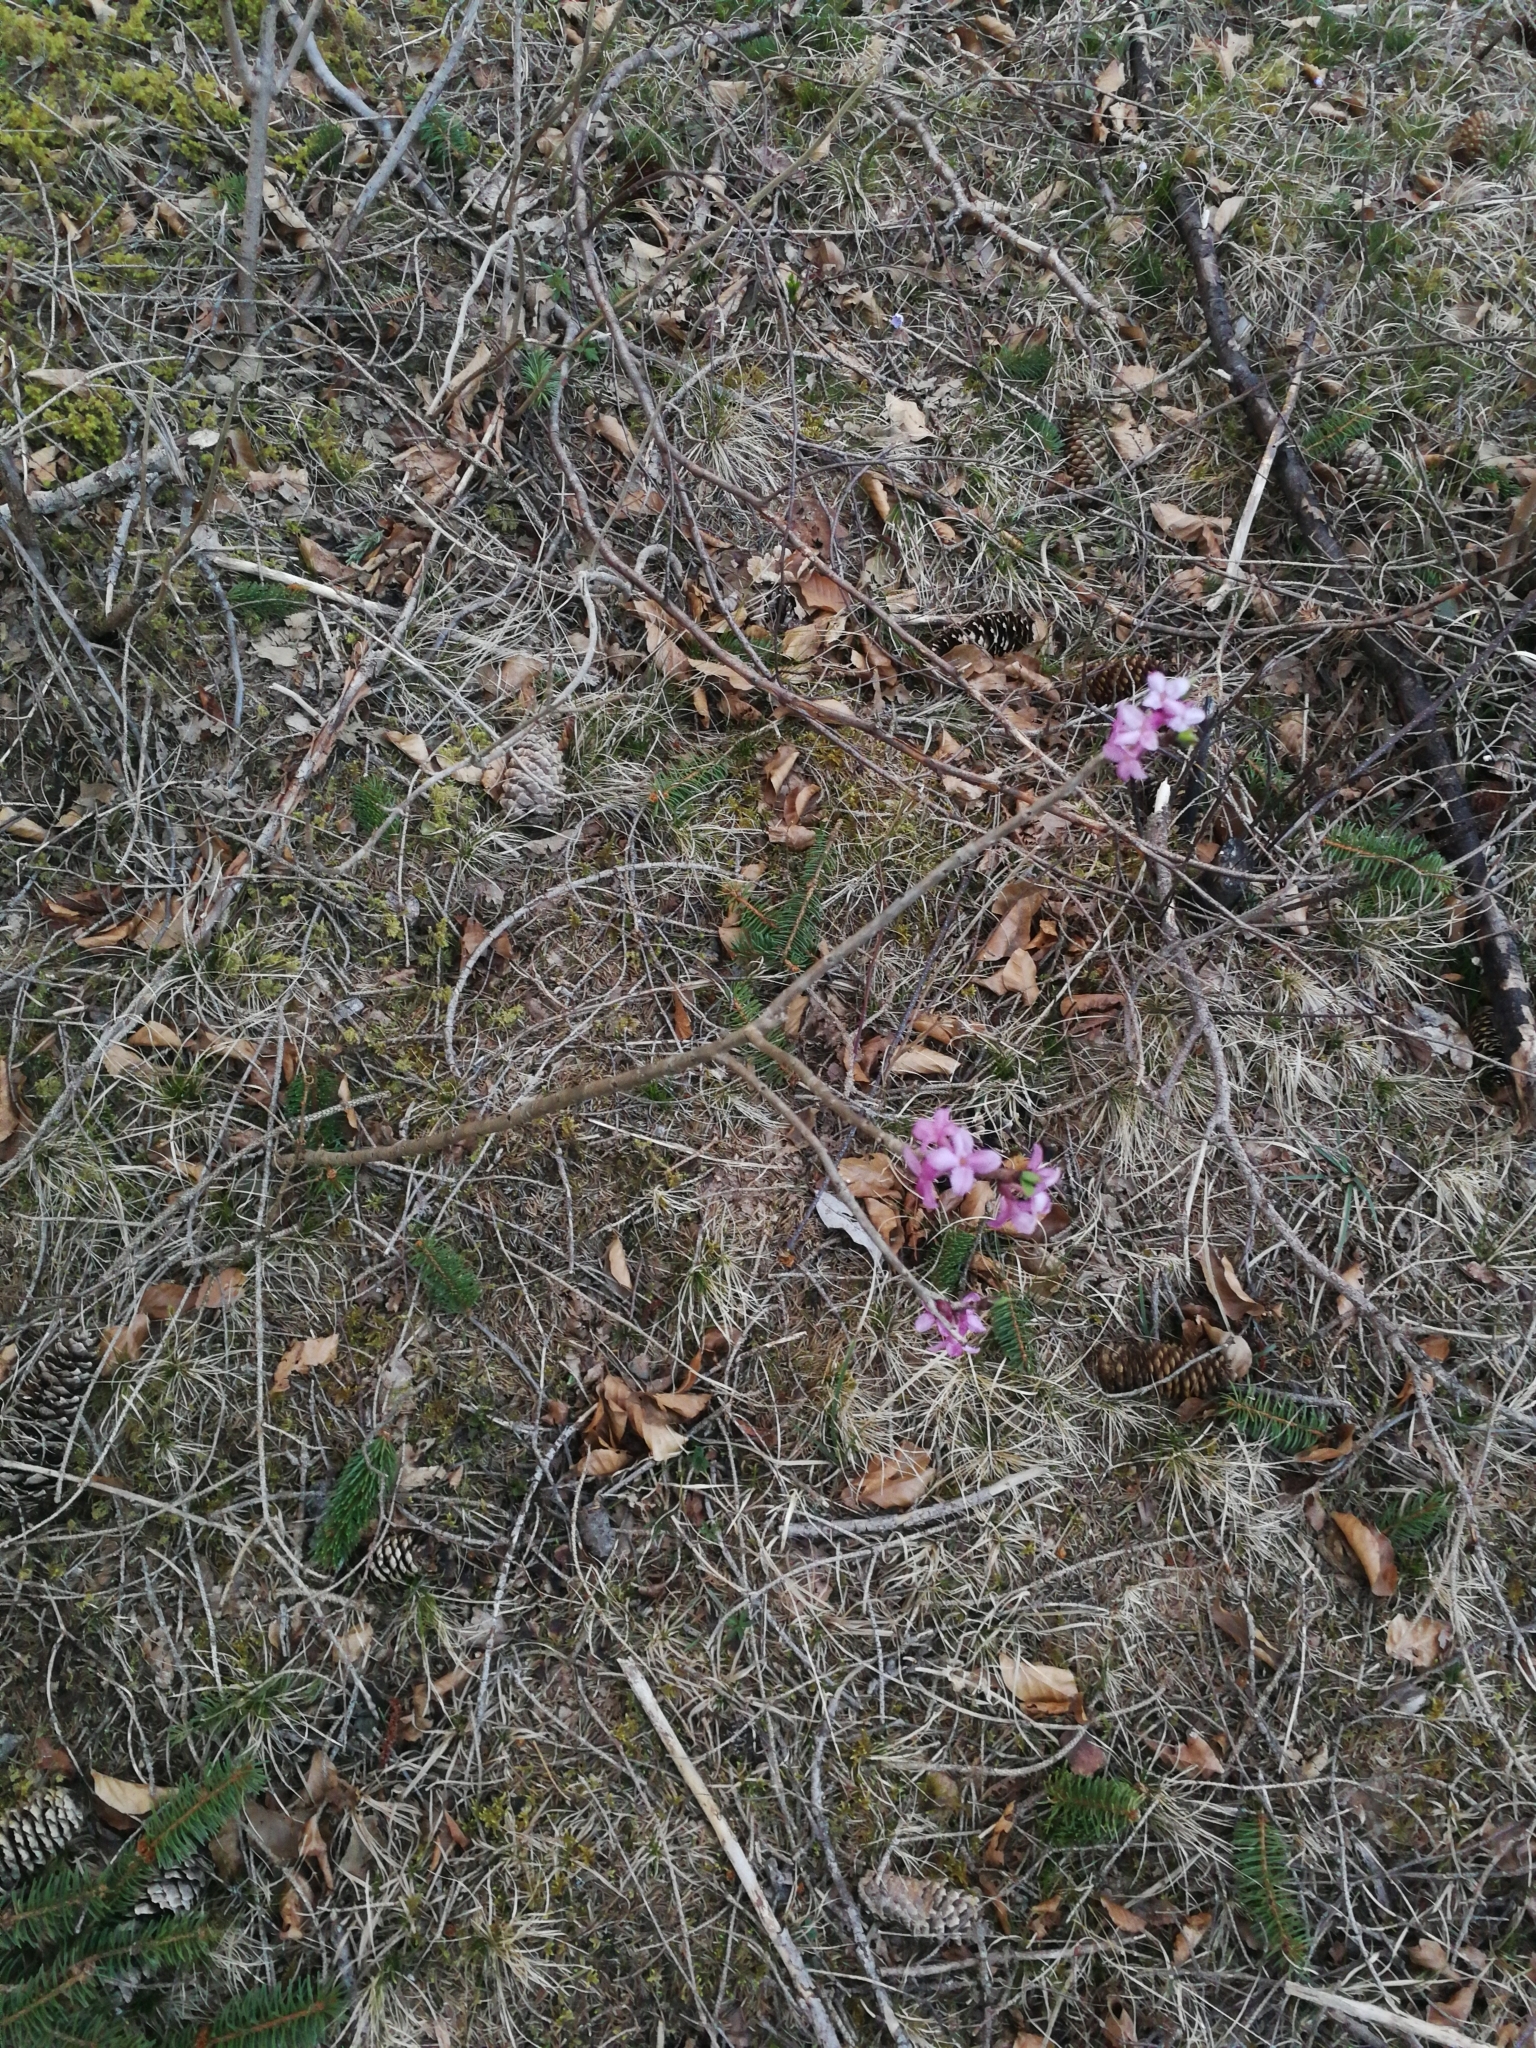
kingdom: Plantae
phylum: Tracheophyta
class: Magnoliopsida
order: Malvales
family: Thymelaeaceae
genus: Daphne
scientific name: Daphne mezereum
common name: Mezereon
